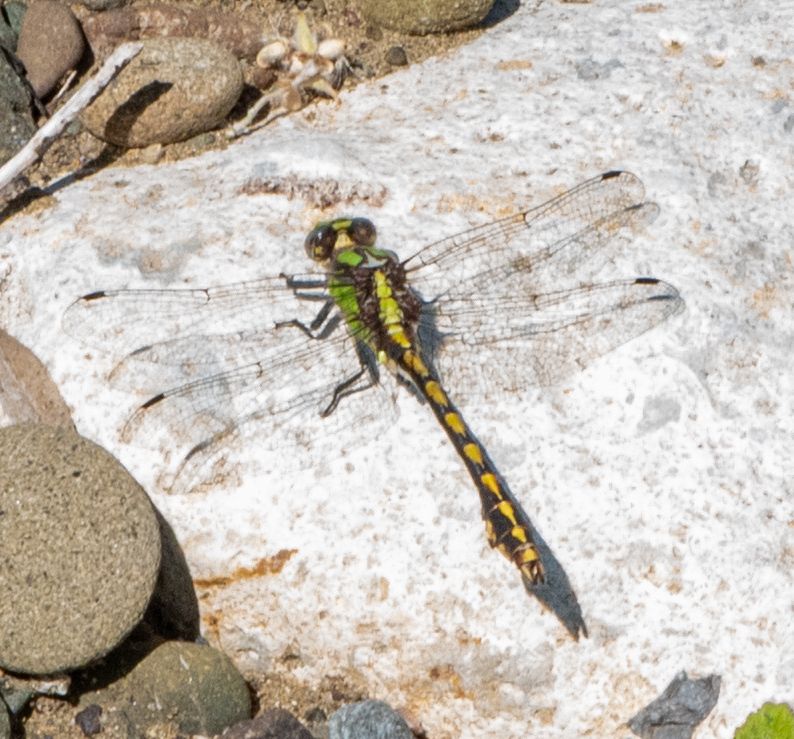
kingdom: Animalia
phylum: Arthropoda
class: Insecta
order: Odonata
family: Gomphidae
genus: Ophiogomphus
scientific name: Ophiogomphus bison
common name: Bison snaketail
